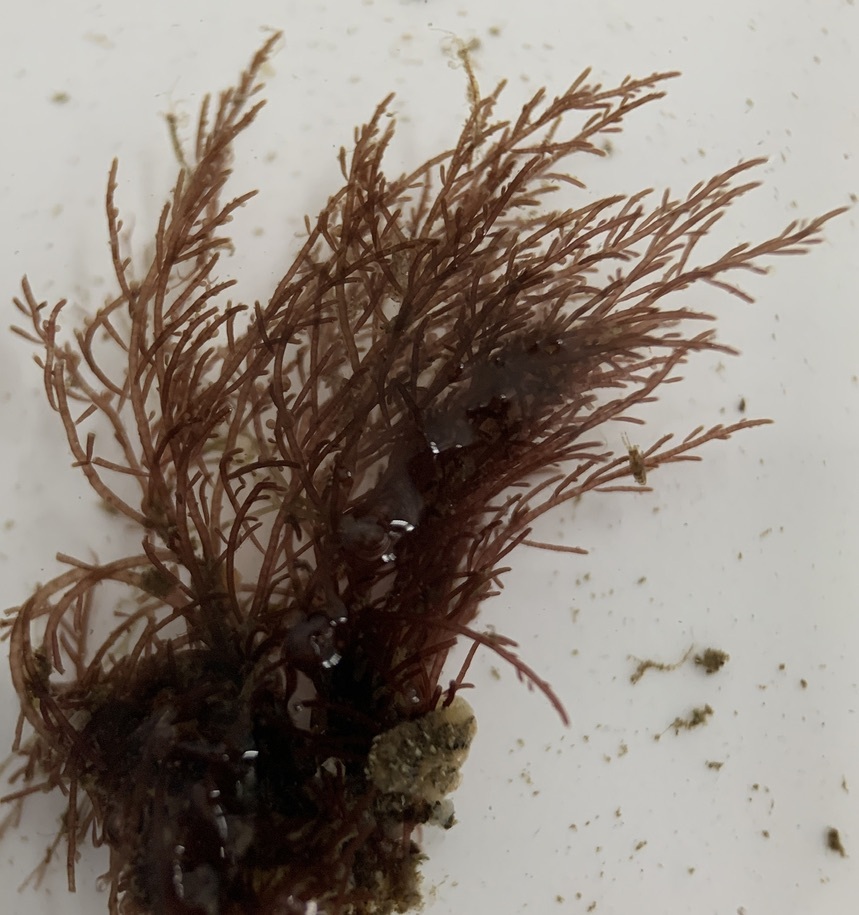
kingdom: Plantae
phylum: Rhodophyta
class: Florideophyceae
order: Ceramiales
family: Rhodomelaceae
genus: Chondria
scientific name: Chondria baileyana
